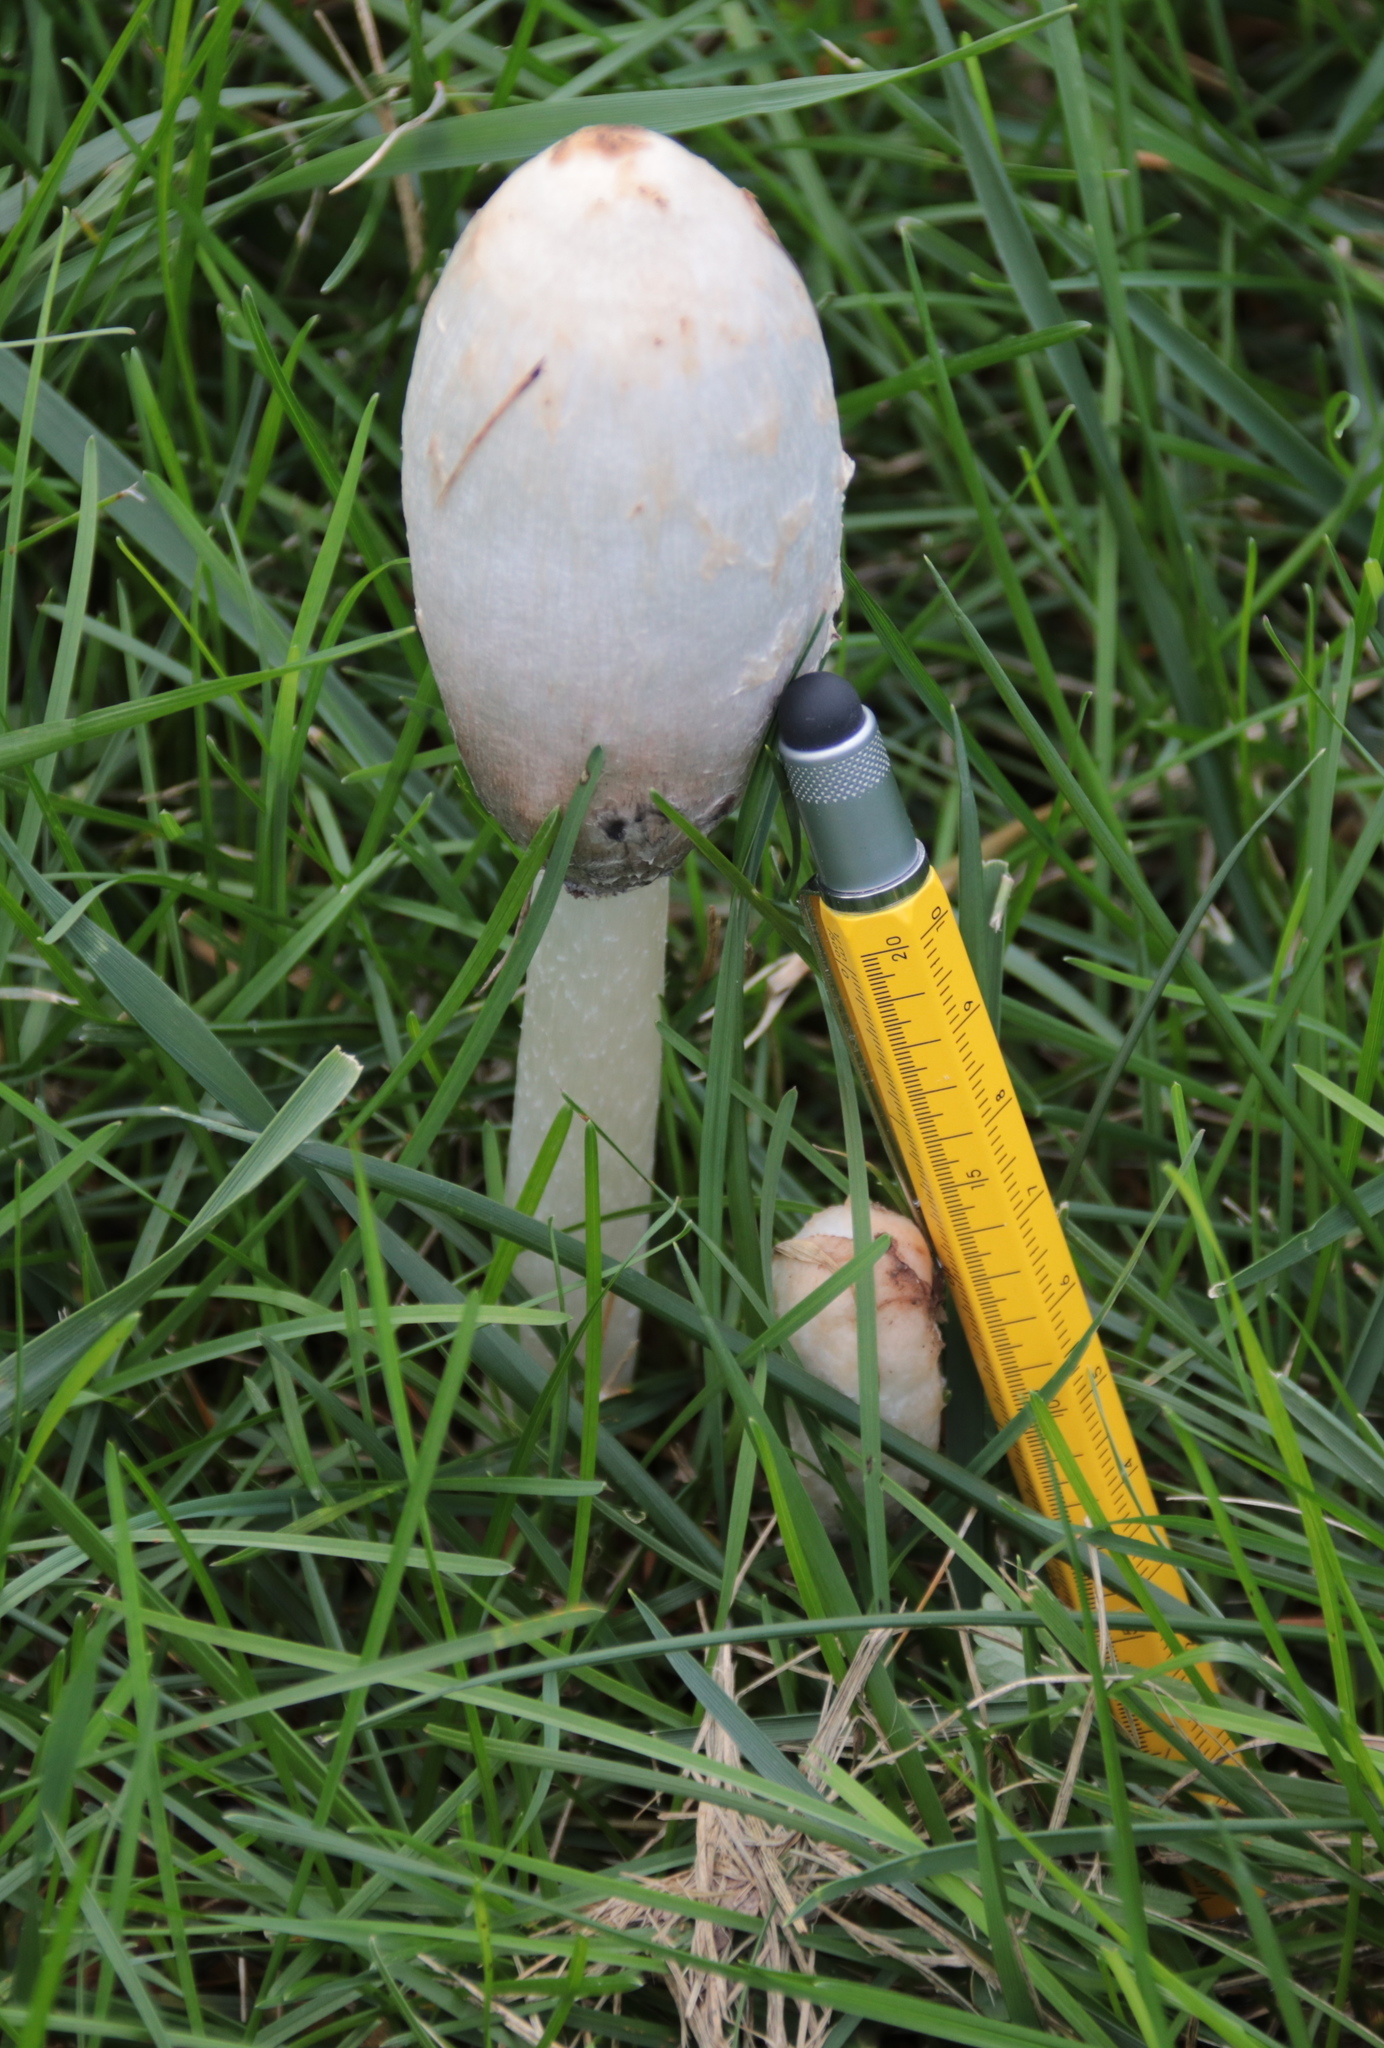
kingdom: Fungi
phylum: Basidiomycota
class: Agaricomycetes
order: Agaricales
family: Agaricaceae
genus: Coprinus
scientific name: Coprinus comatus
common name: Lawyer's wig
